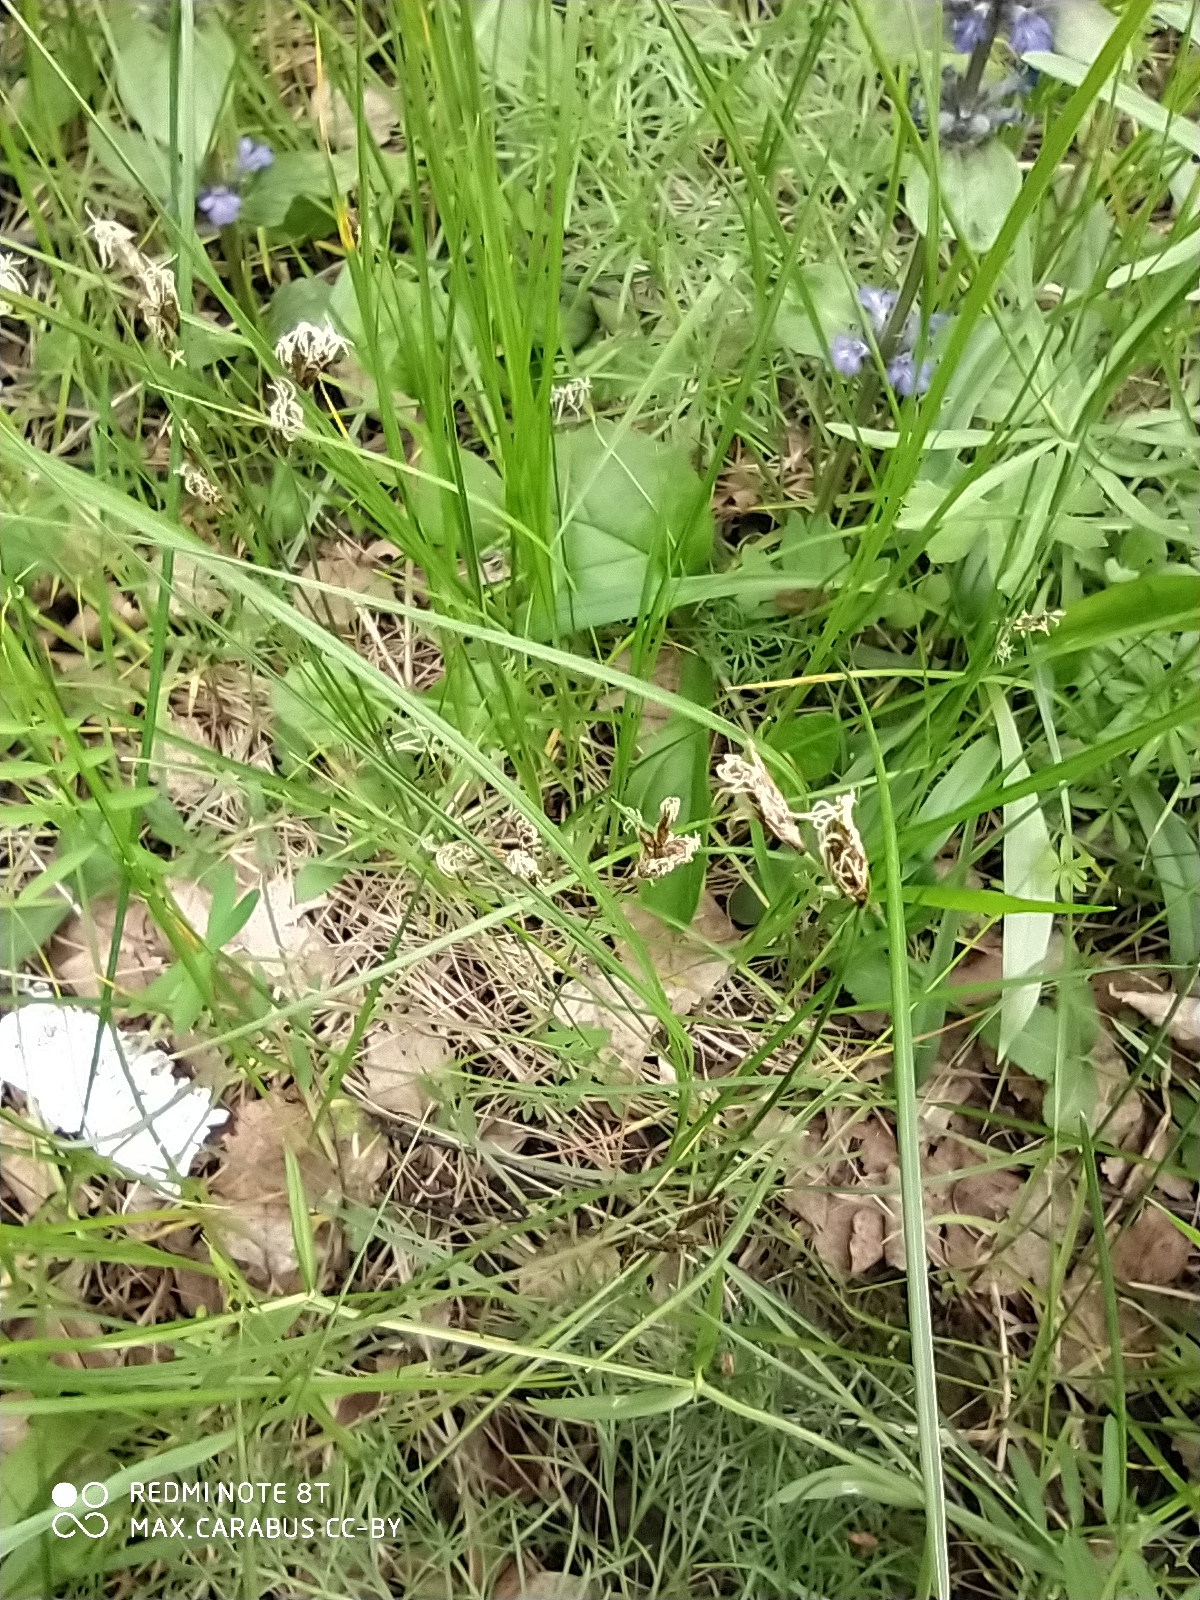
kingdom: Plantae
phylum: Tracheophyta
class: Liliopsida
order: Poales
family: Cyperaceae
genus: Carex
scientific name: Carex praecox
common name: Early sedge
